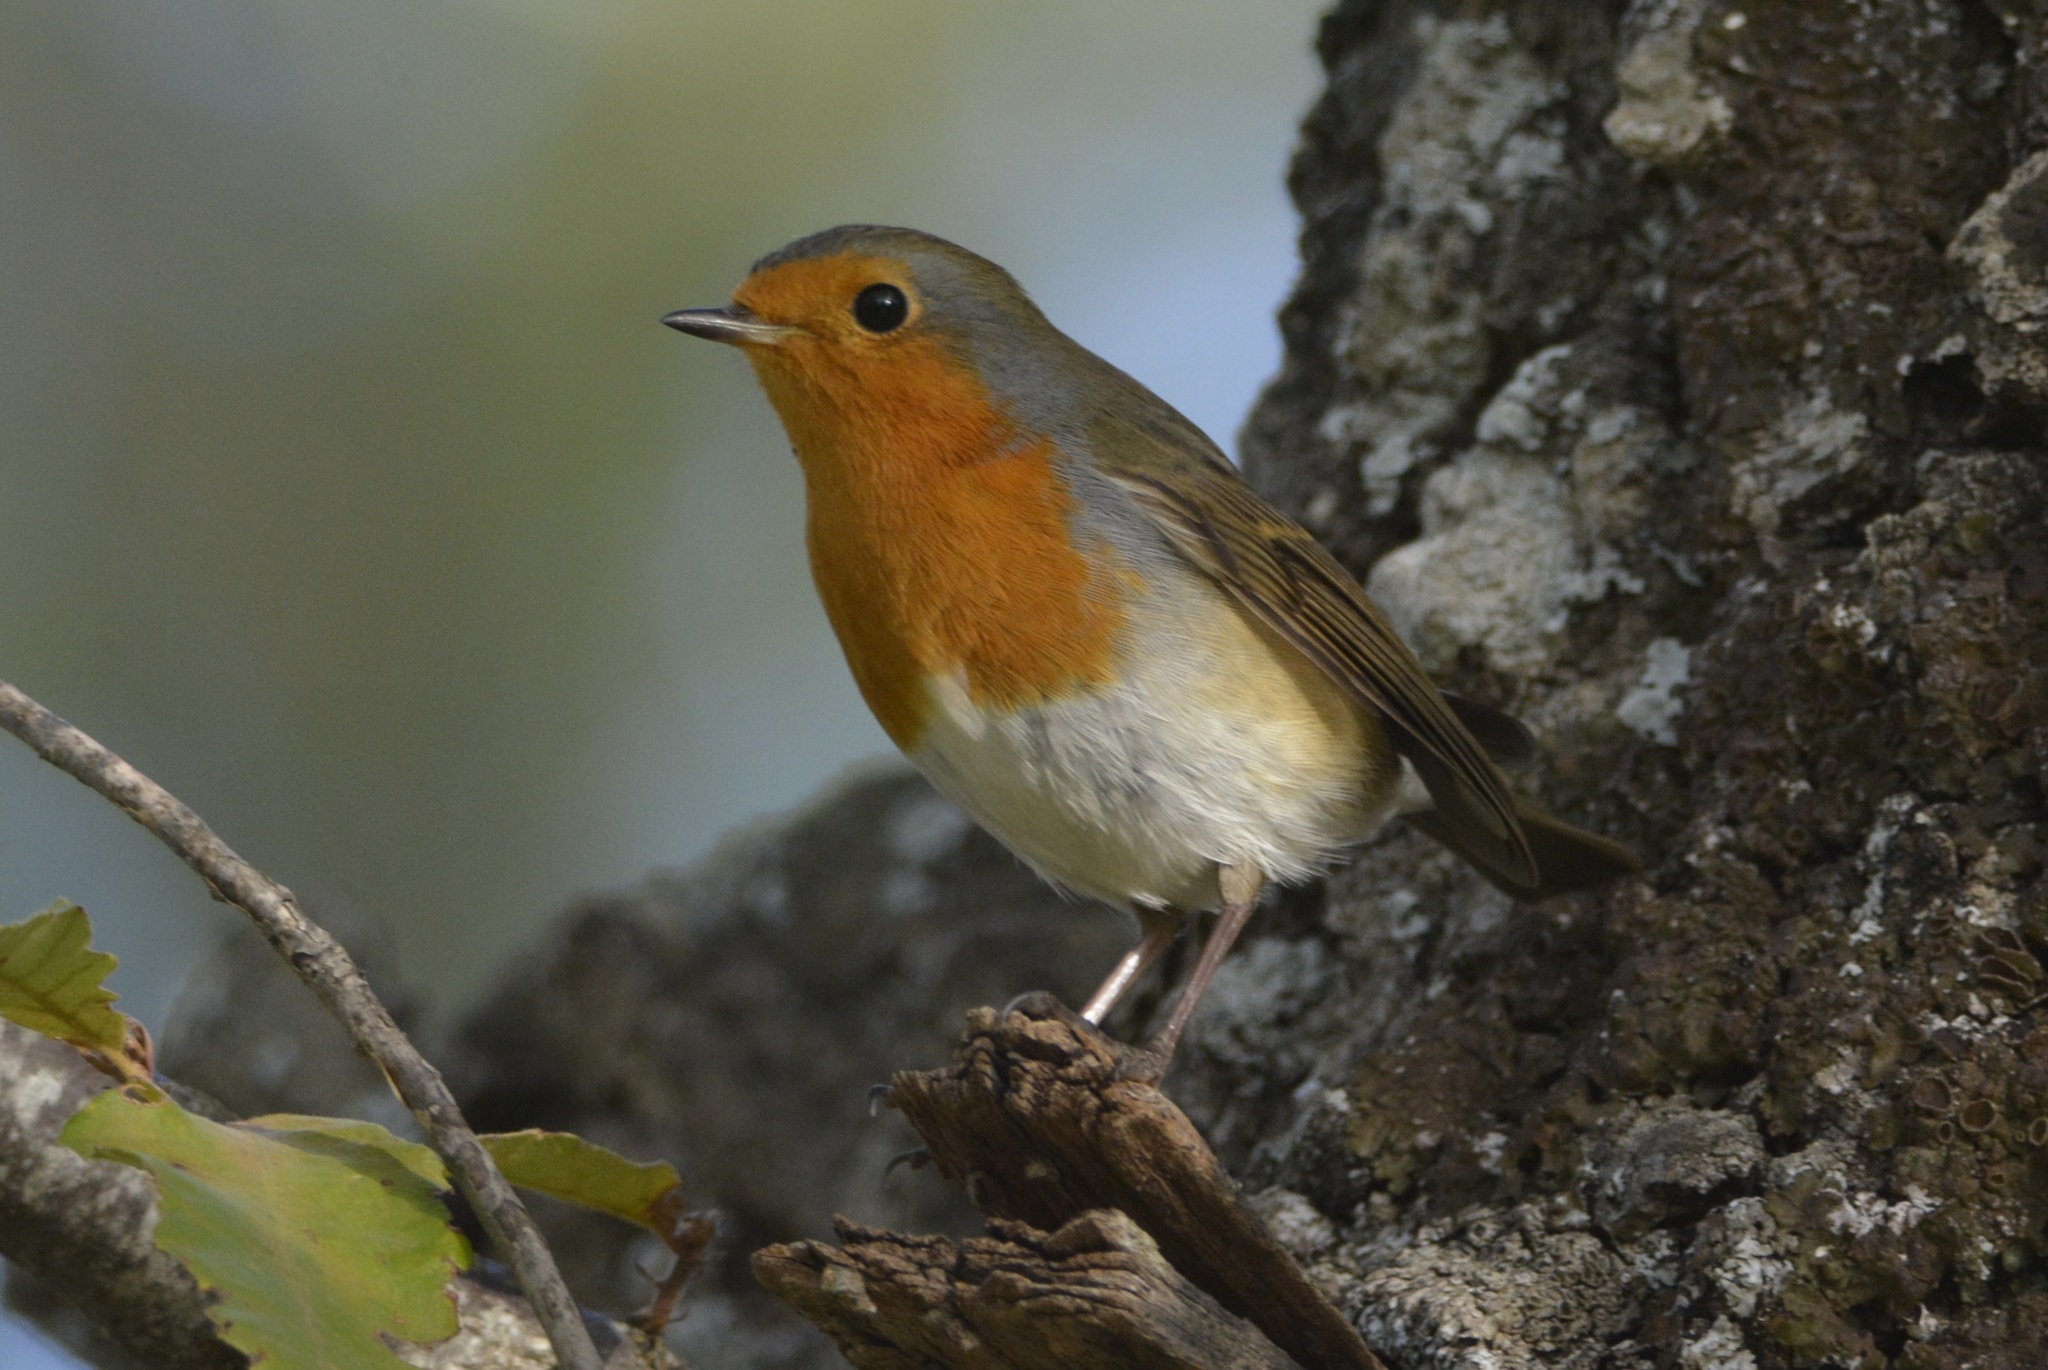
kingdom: Animalia
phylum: Chordata
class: Aves
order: Passeriformes
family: Muscicapidae
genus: Erithacus
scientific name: Erithacus rubecula
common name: European robin
